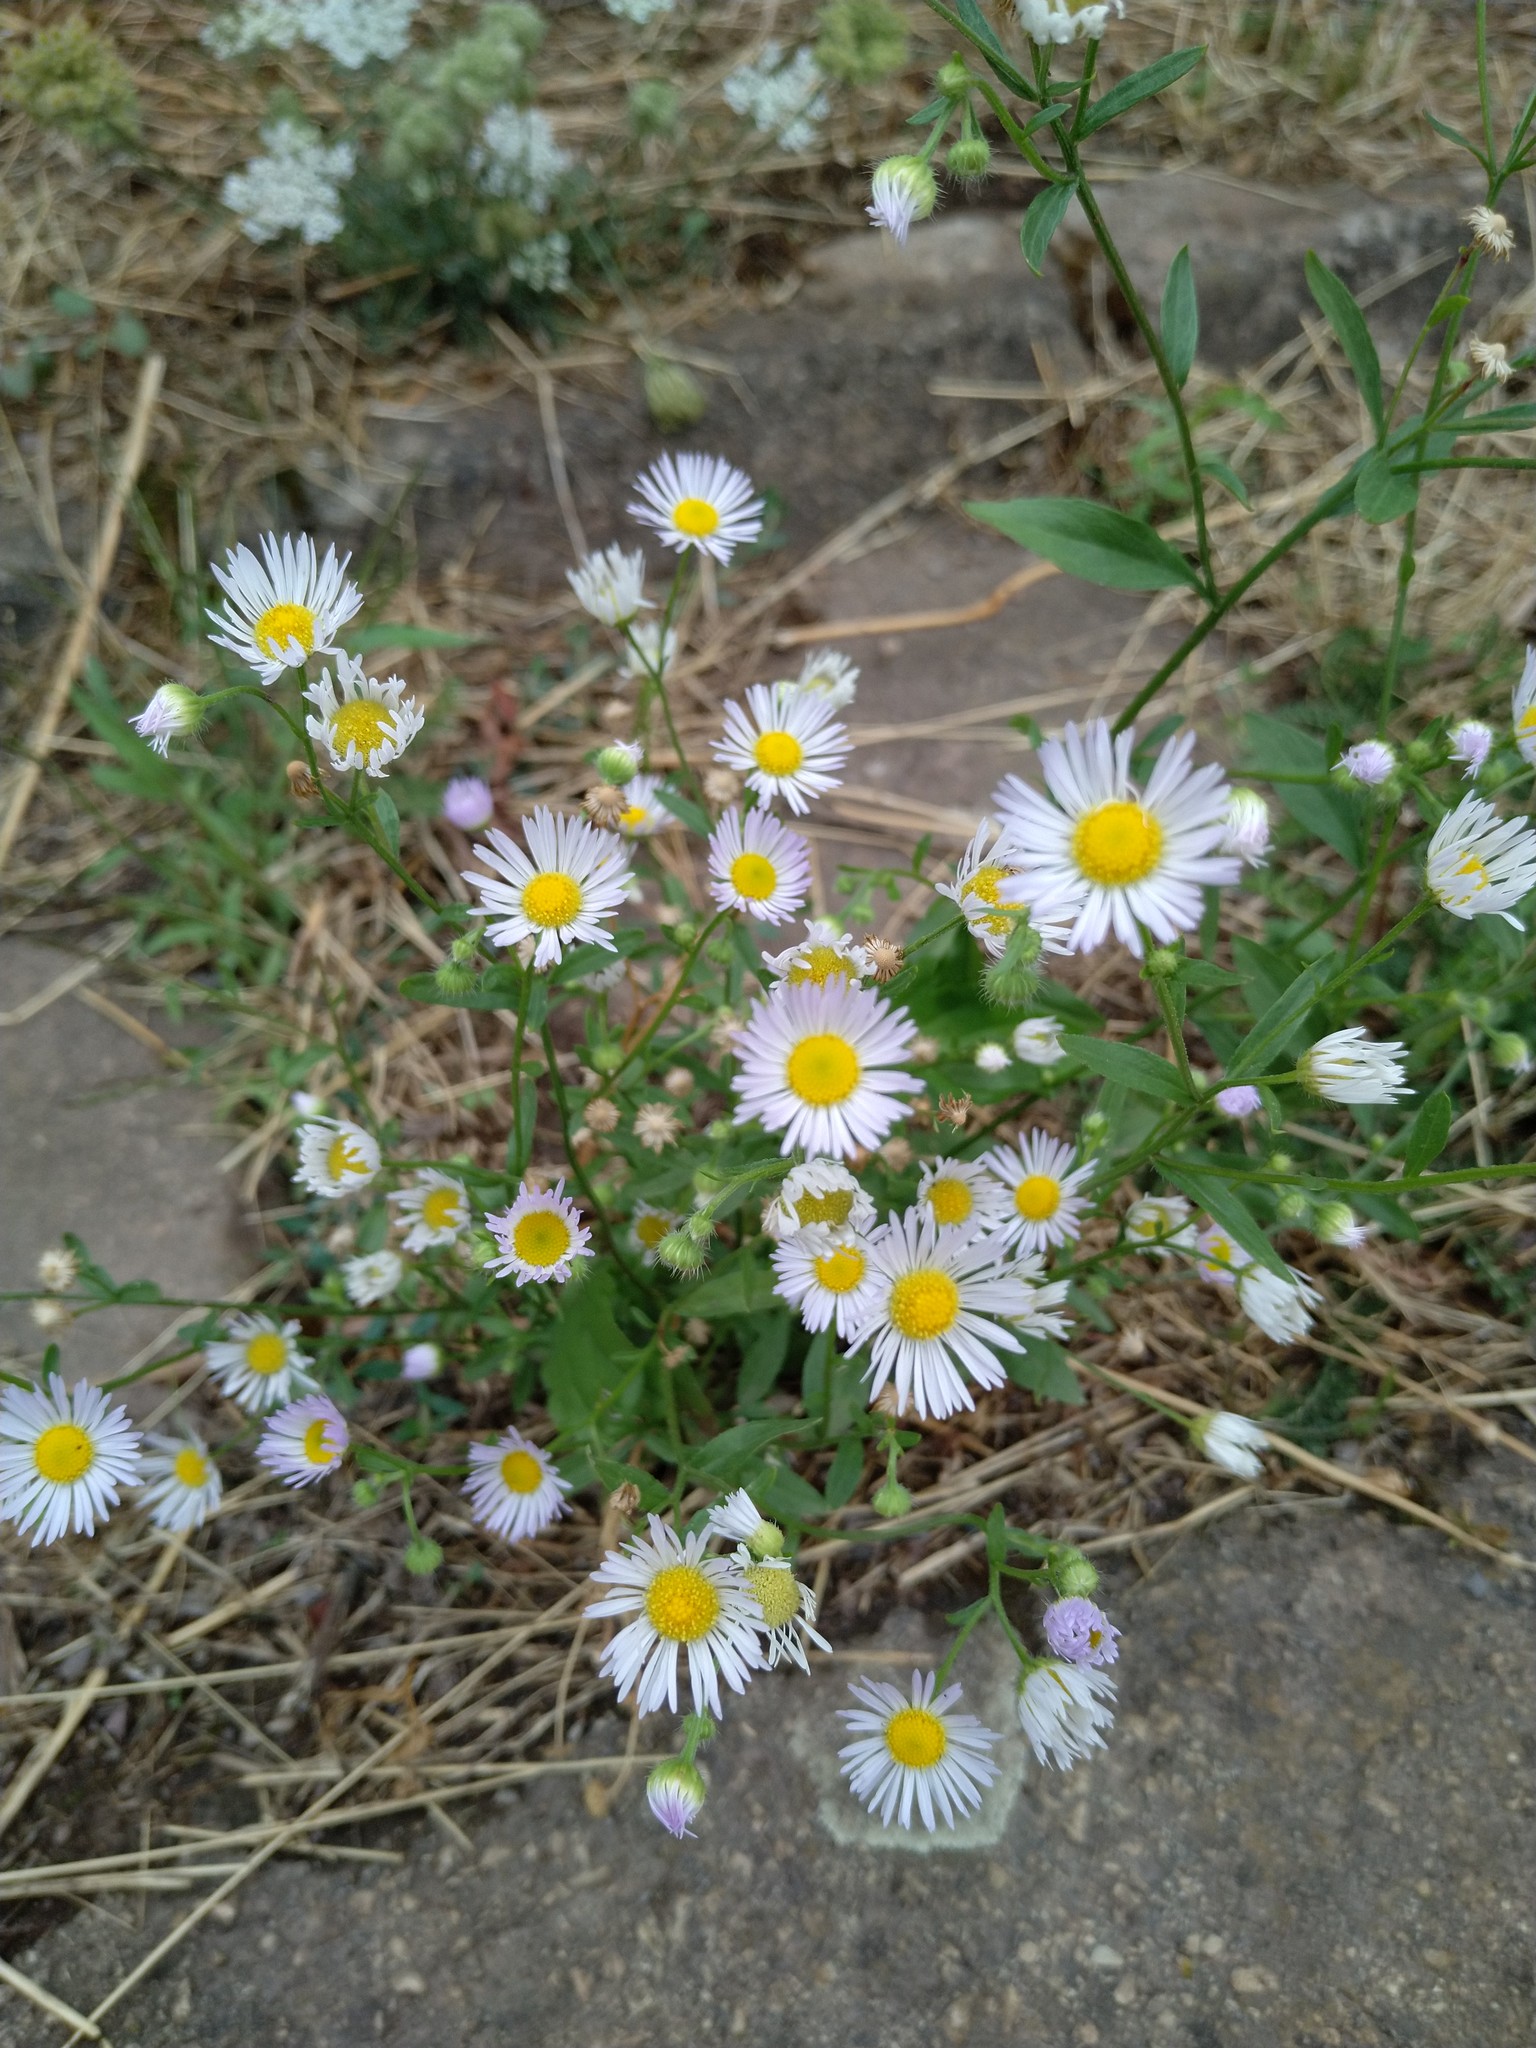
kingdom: Plantae
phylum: Tracheophyta
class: Magnoliopsida
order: Asterales
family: Asteraceae
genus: Erigeron
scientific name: Erigeron annuus
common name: Tall fleabane
